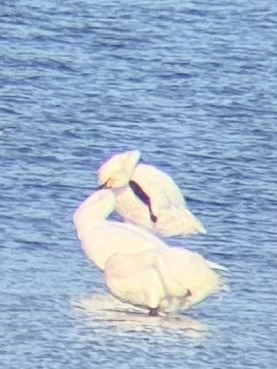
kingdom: Animalia
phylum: Chordata
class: Aves
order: Anseriformes
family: Anatidae
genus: Cygnus
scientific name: Cygnus columbianus
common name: Tundra swan
